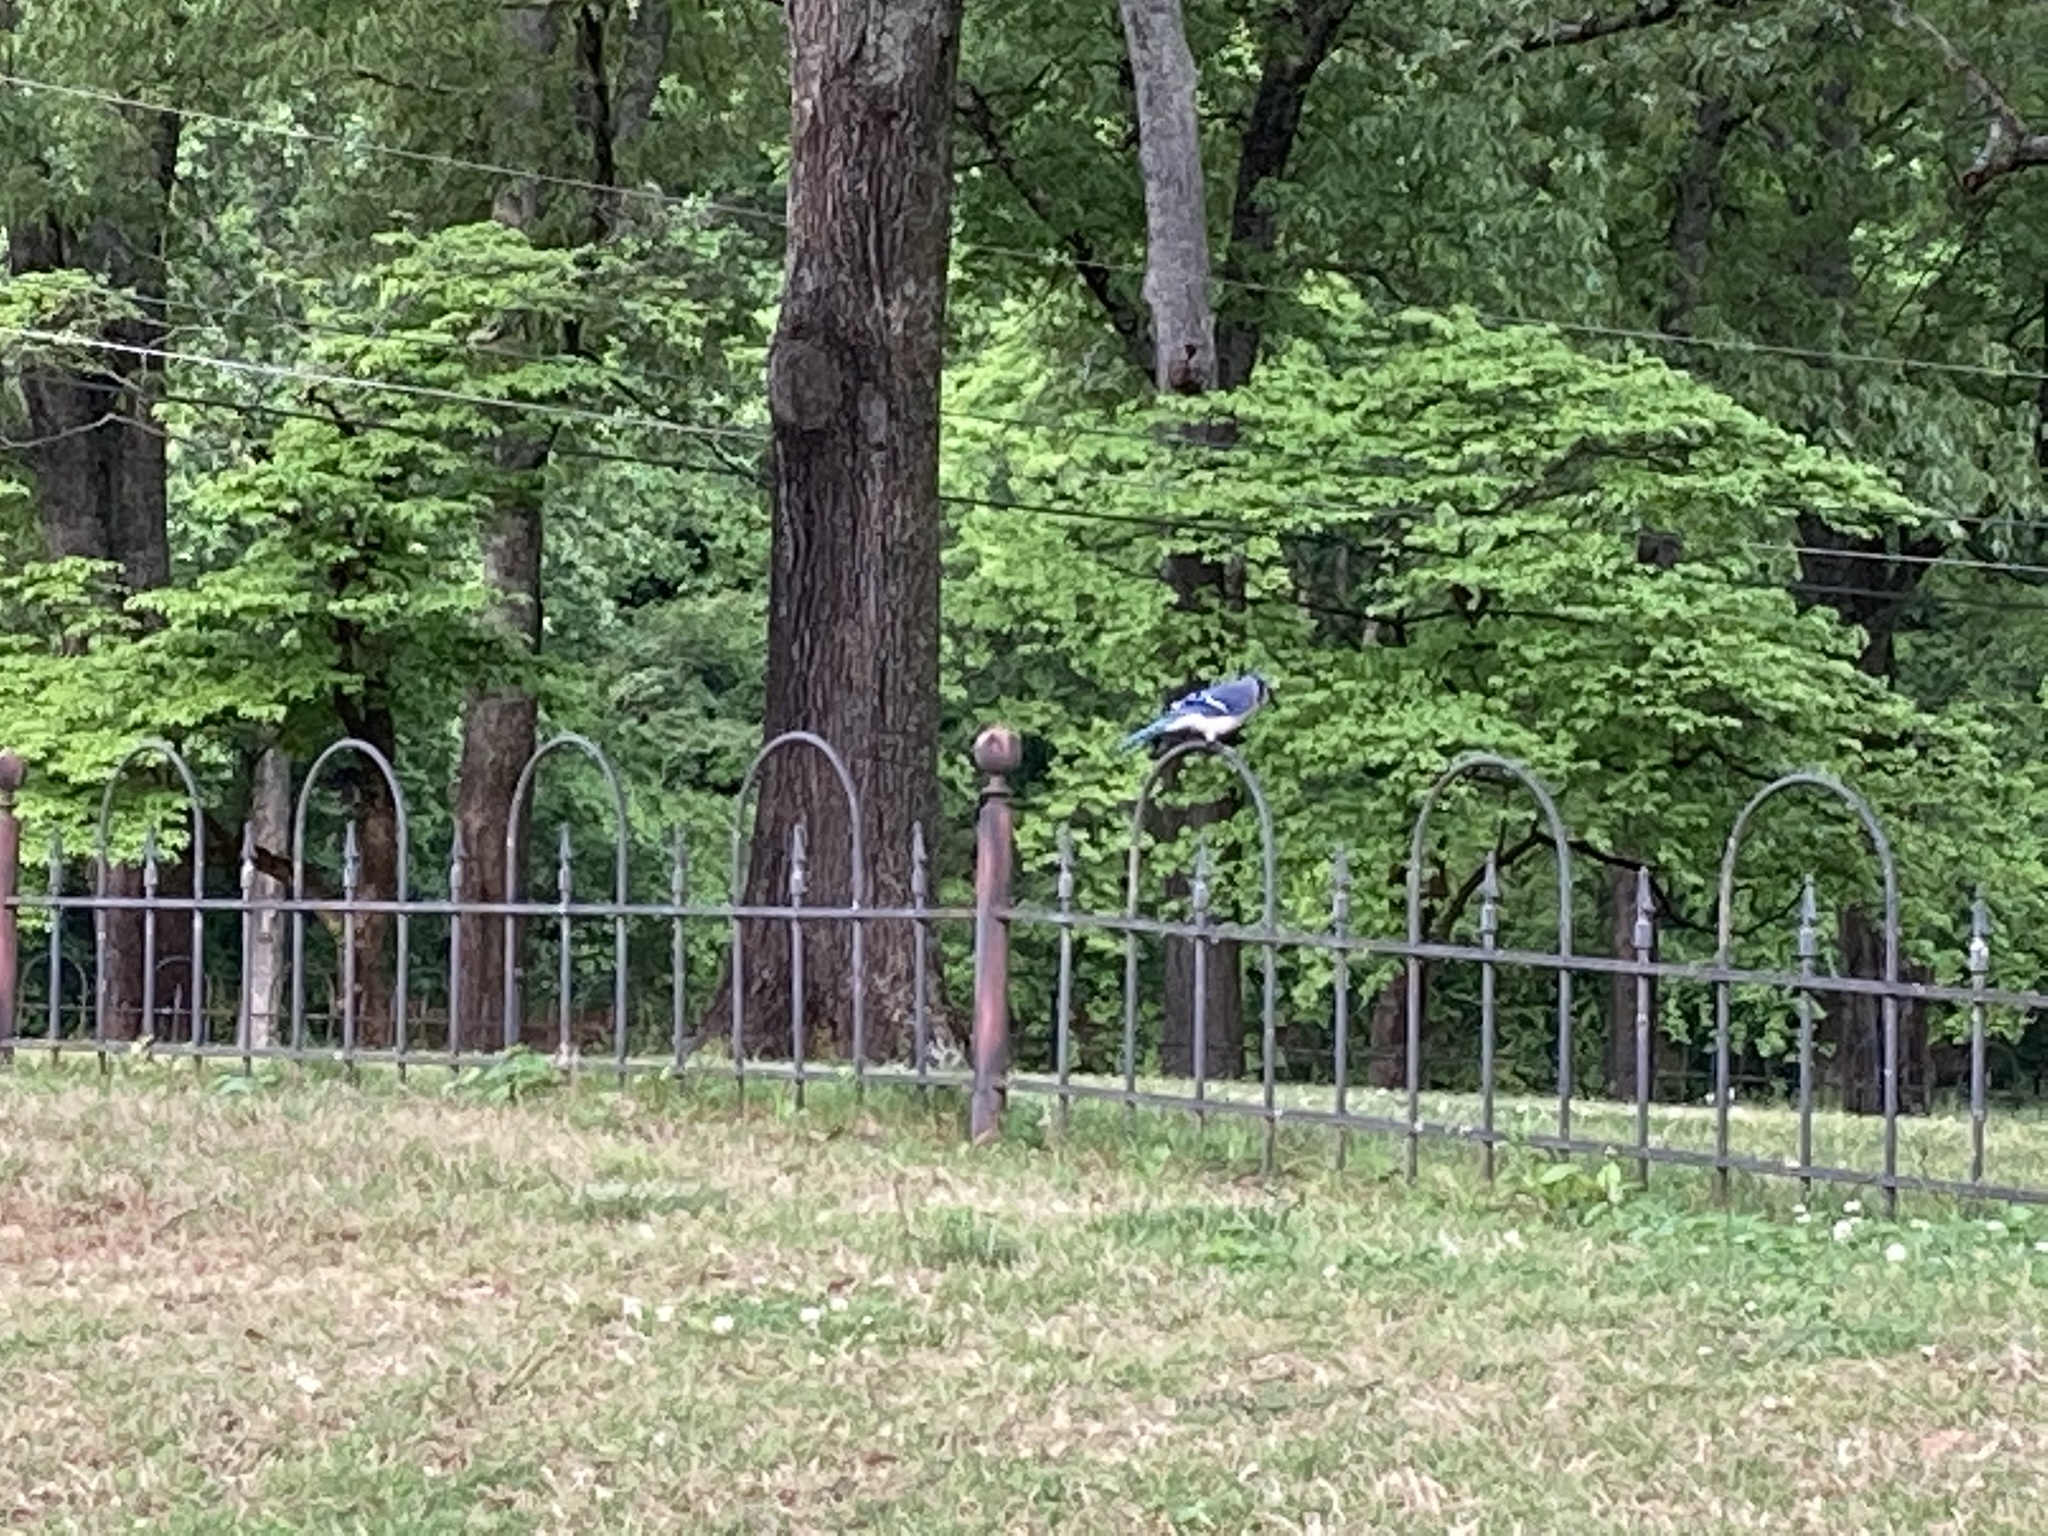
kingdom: Animalia
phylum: Chordata
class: Aves
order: Passeriformes
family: Corvidae
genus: Cyanocitta
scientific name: Cyanocitta cristata
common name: Blue jay
